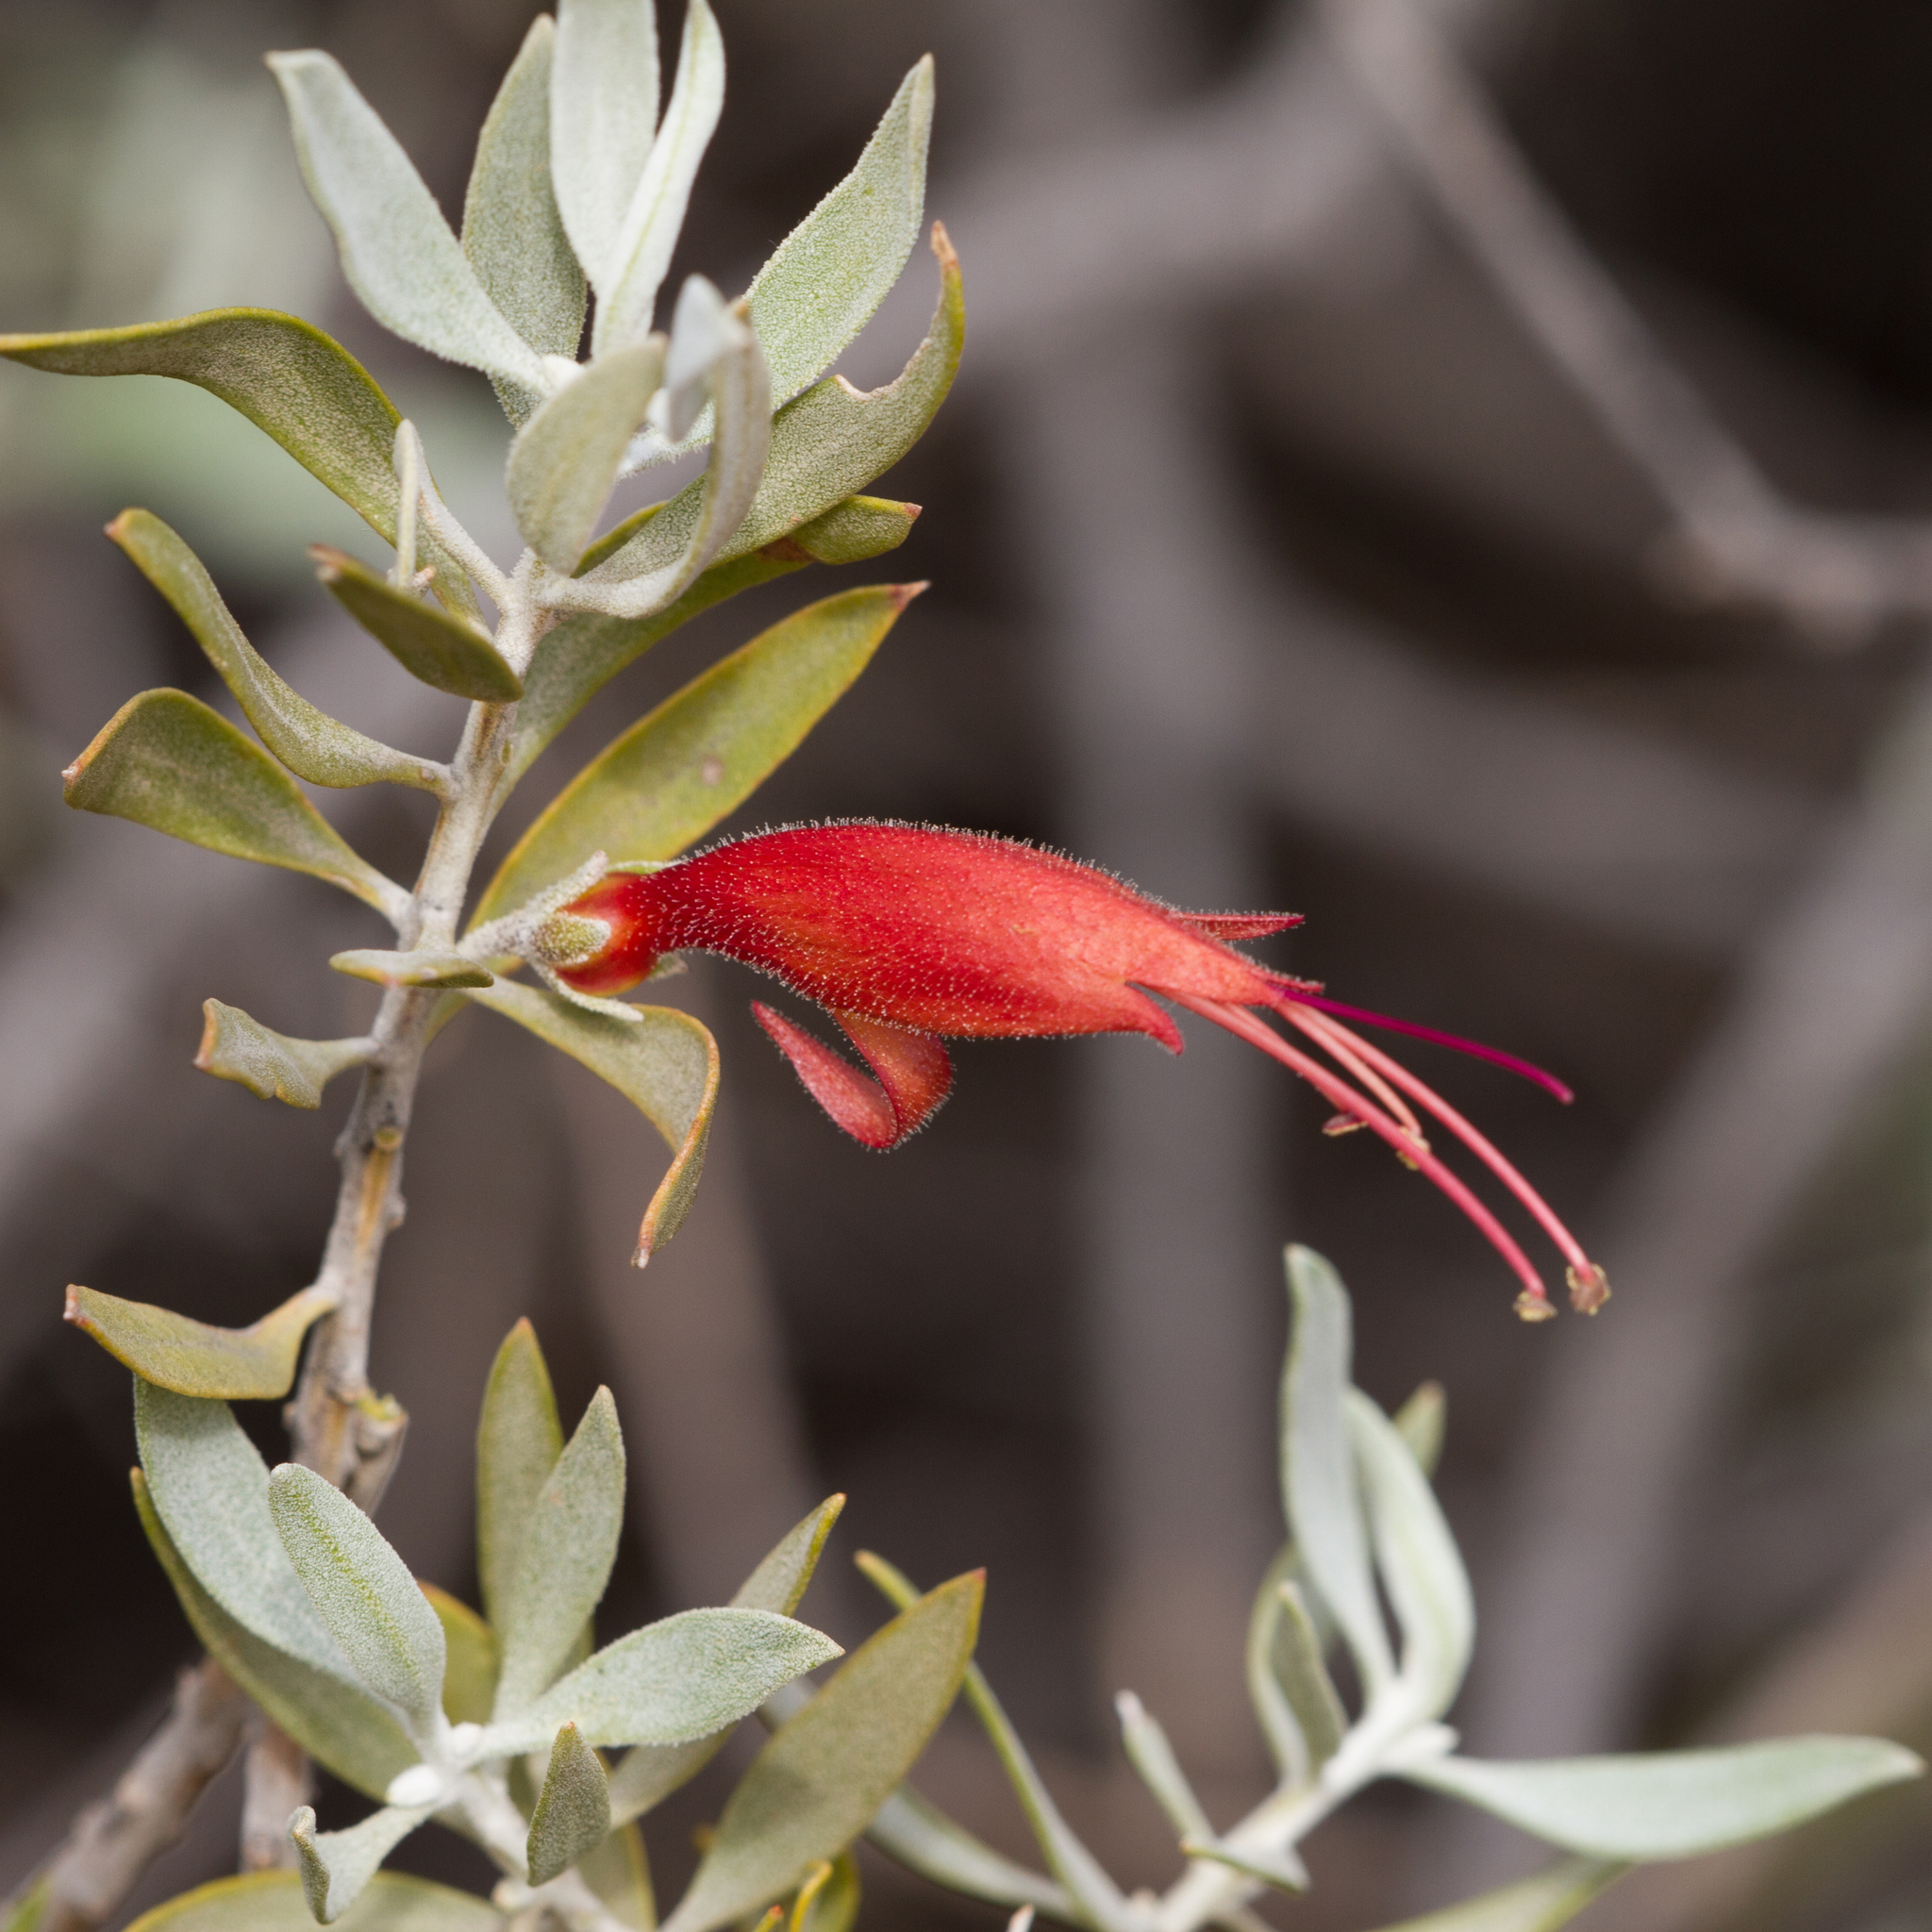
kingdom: Plantae
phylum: Tracheophyta
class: Magnoliopsida
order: Lamiales
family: Scrophulariaceae
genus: Eremophila
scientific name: Eremophila glabra
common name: Black-fuchsia
